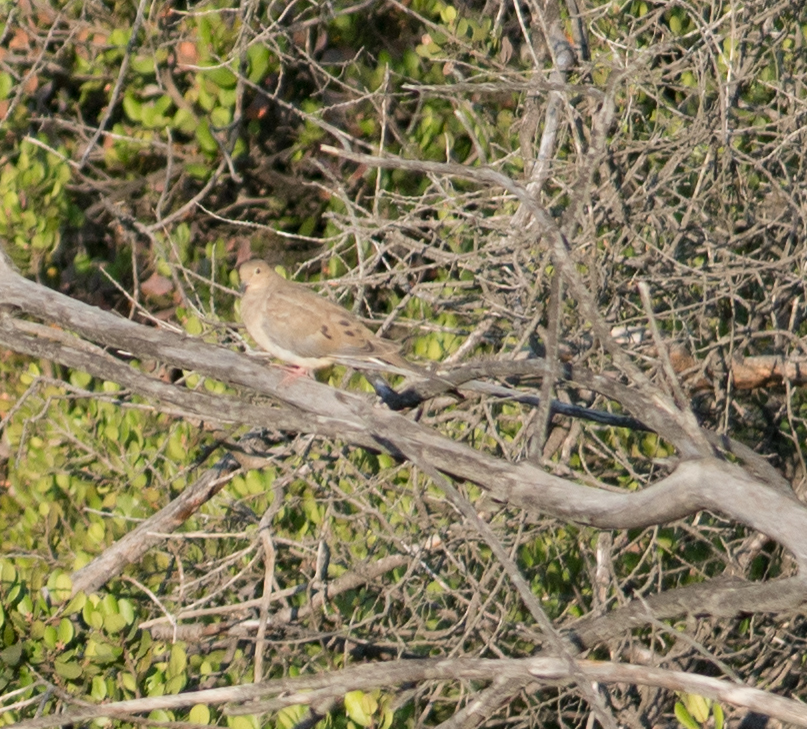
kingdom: Animalia
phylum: Chordata
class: Aves
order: Columbiformes
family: Columbidae
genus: Zenaida
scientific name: Zenaida macroura
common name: Mourning dove
